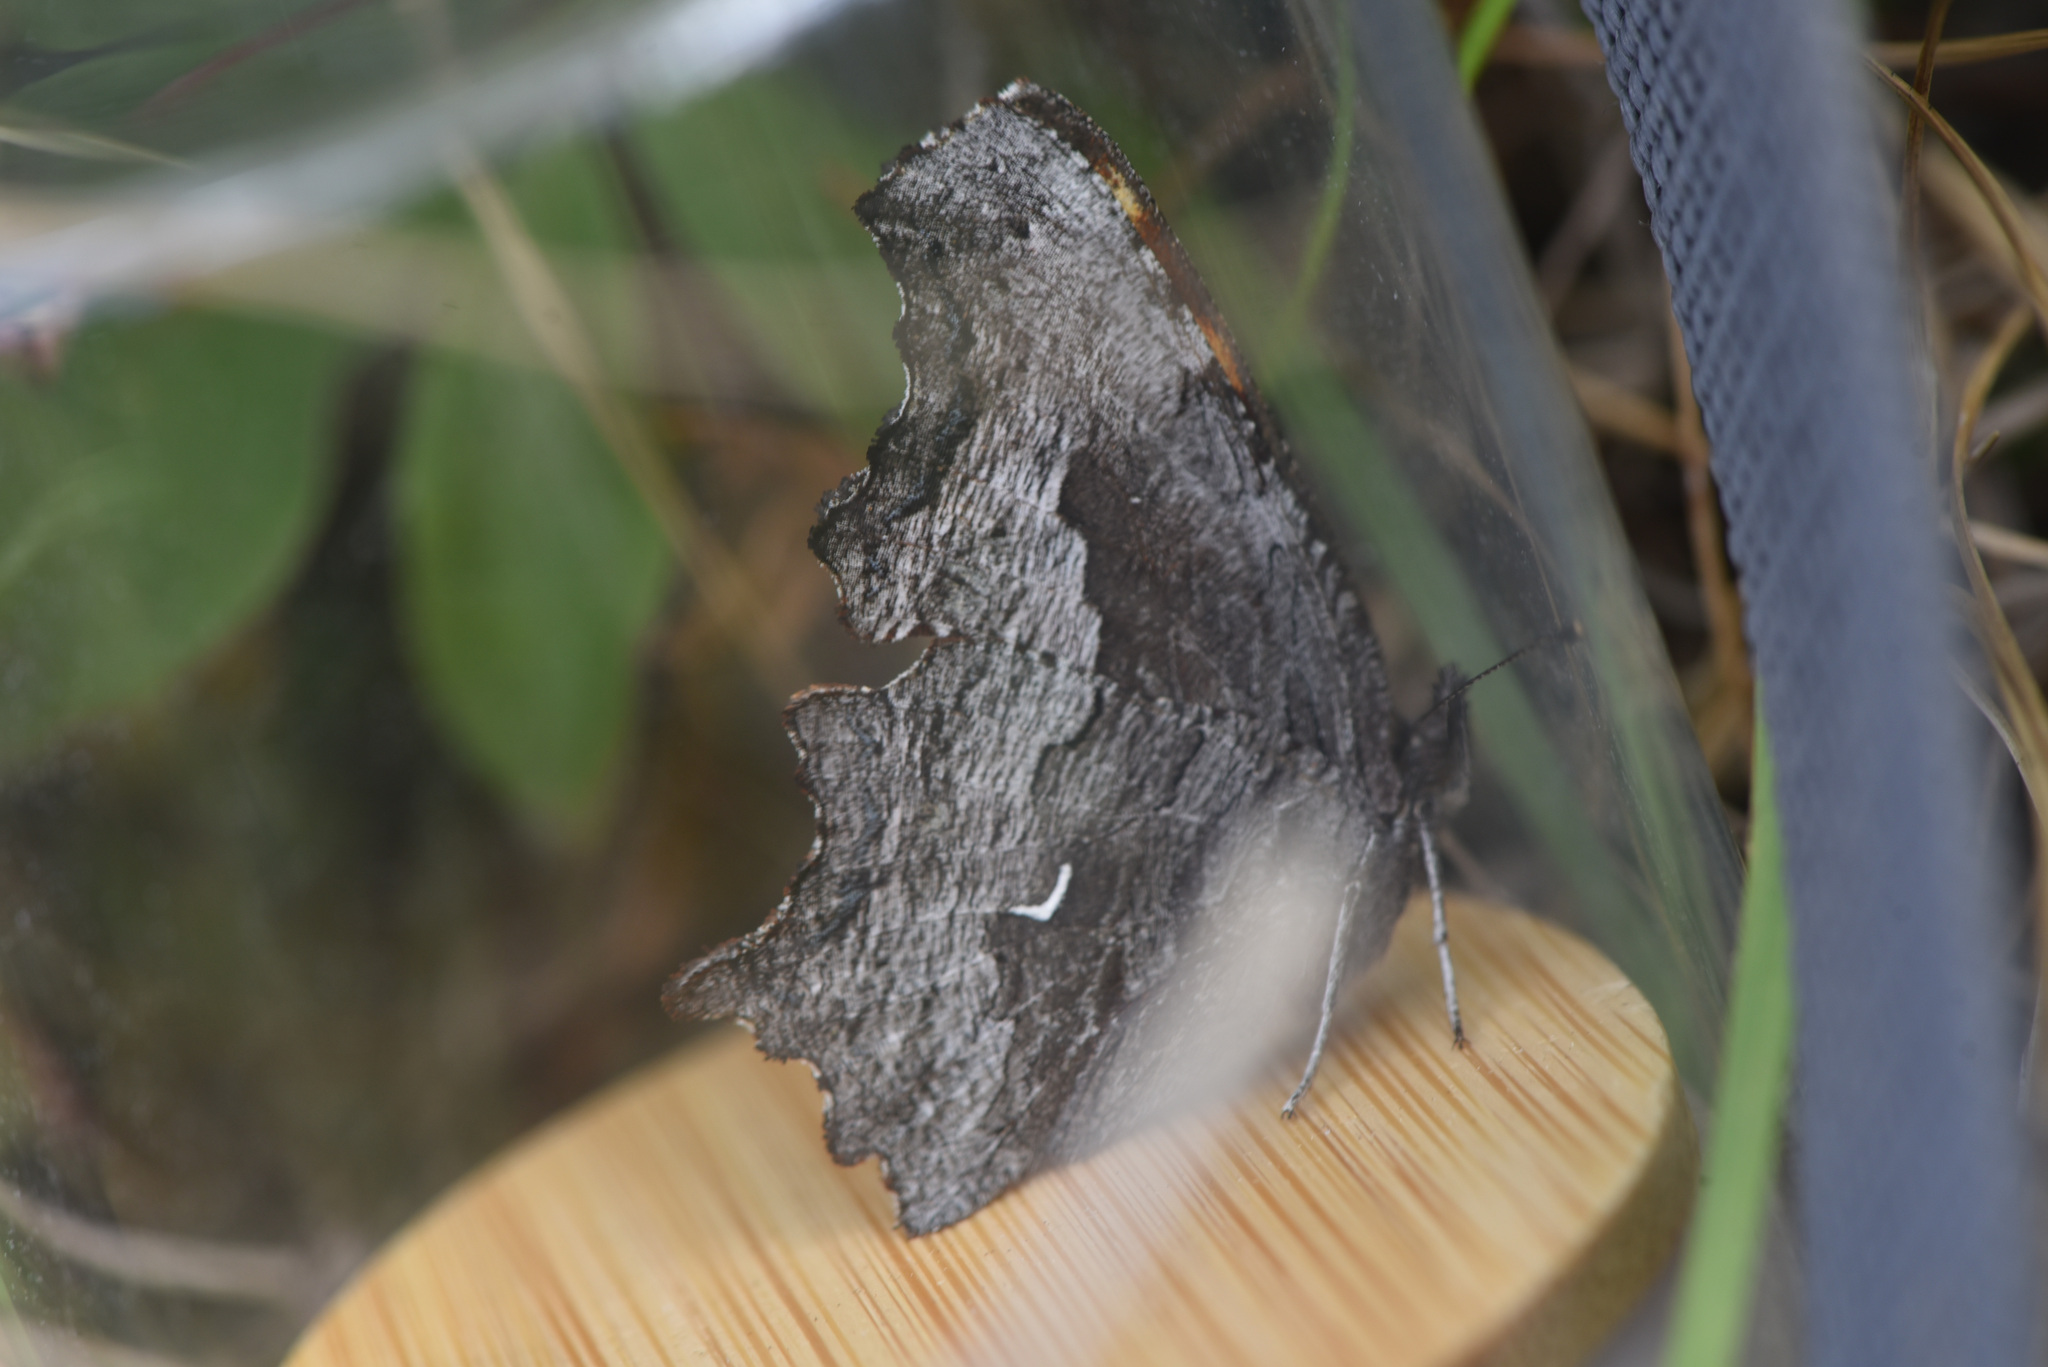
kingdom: Animalia
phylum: Arthropoda
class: Insecta
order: Lepidoptera
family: Nymphalidae
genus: Polygonia
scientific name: Polygonia gracilis
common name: Hoary comma
